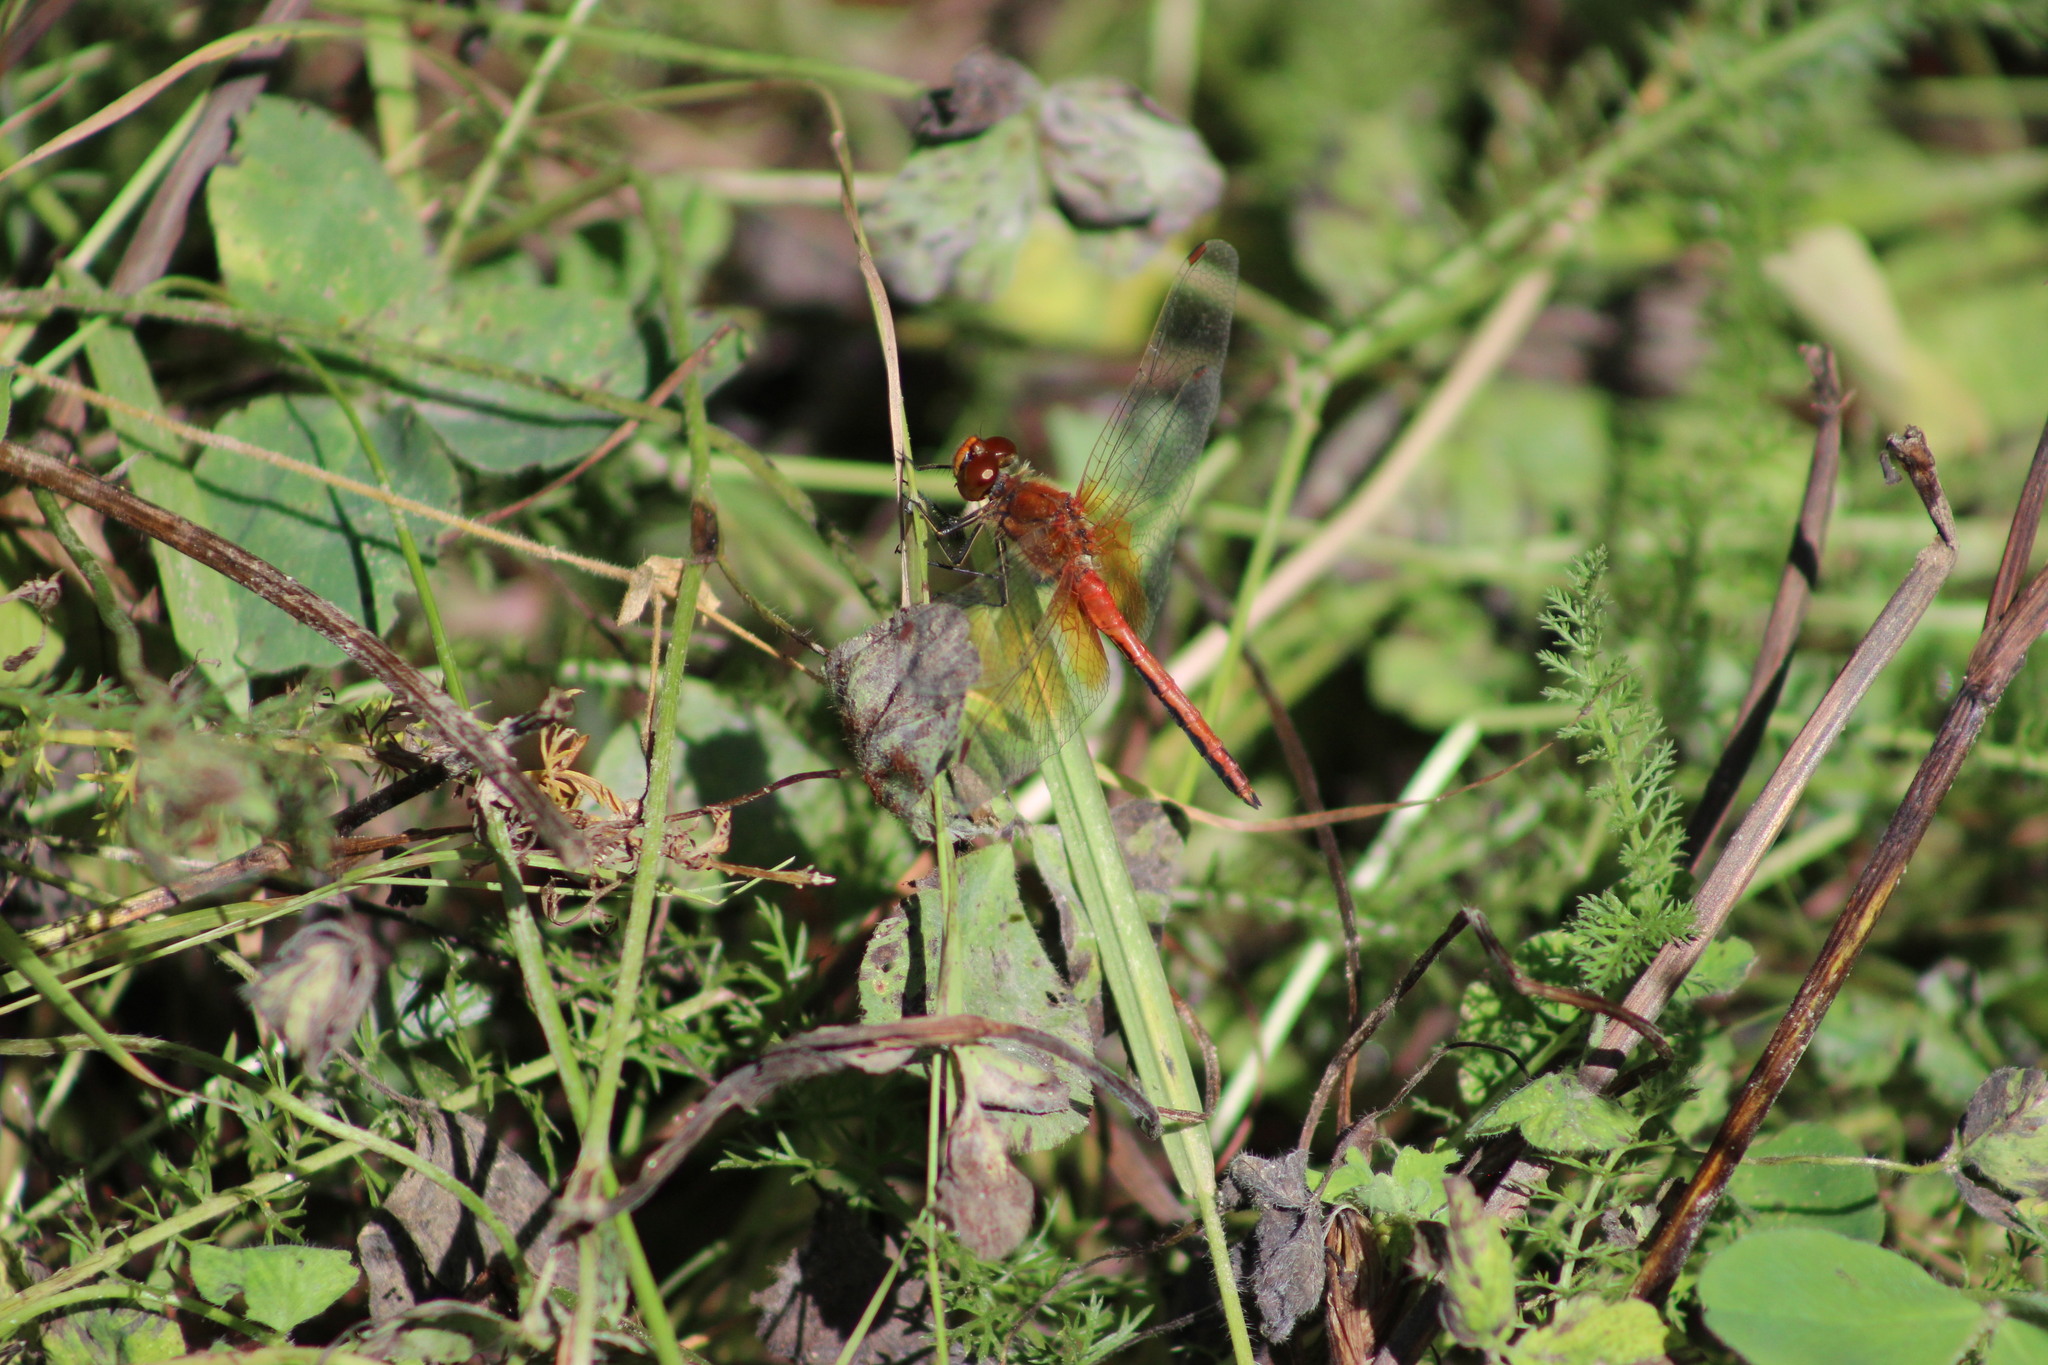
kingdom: Animalia
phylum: Arthropoda
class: Insecta
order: Odonata
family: Libellulidae
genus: Sympetrum
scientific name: Sympetrum flaveolum
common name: Yellow-winged darter
